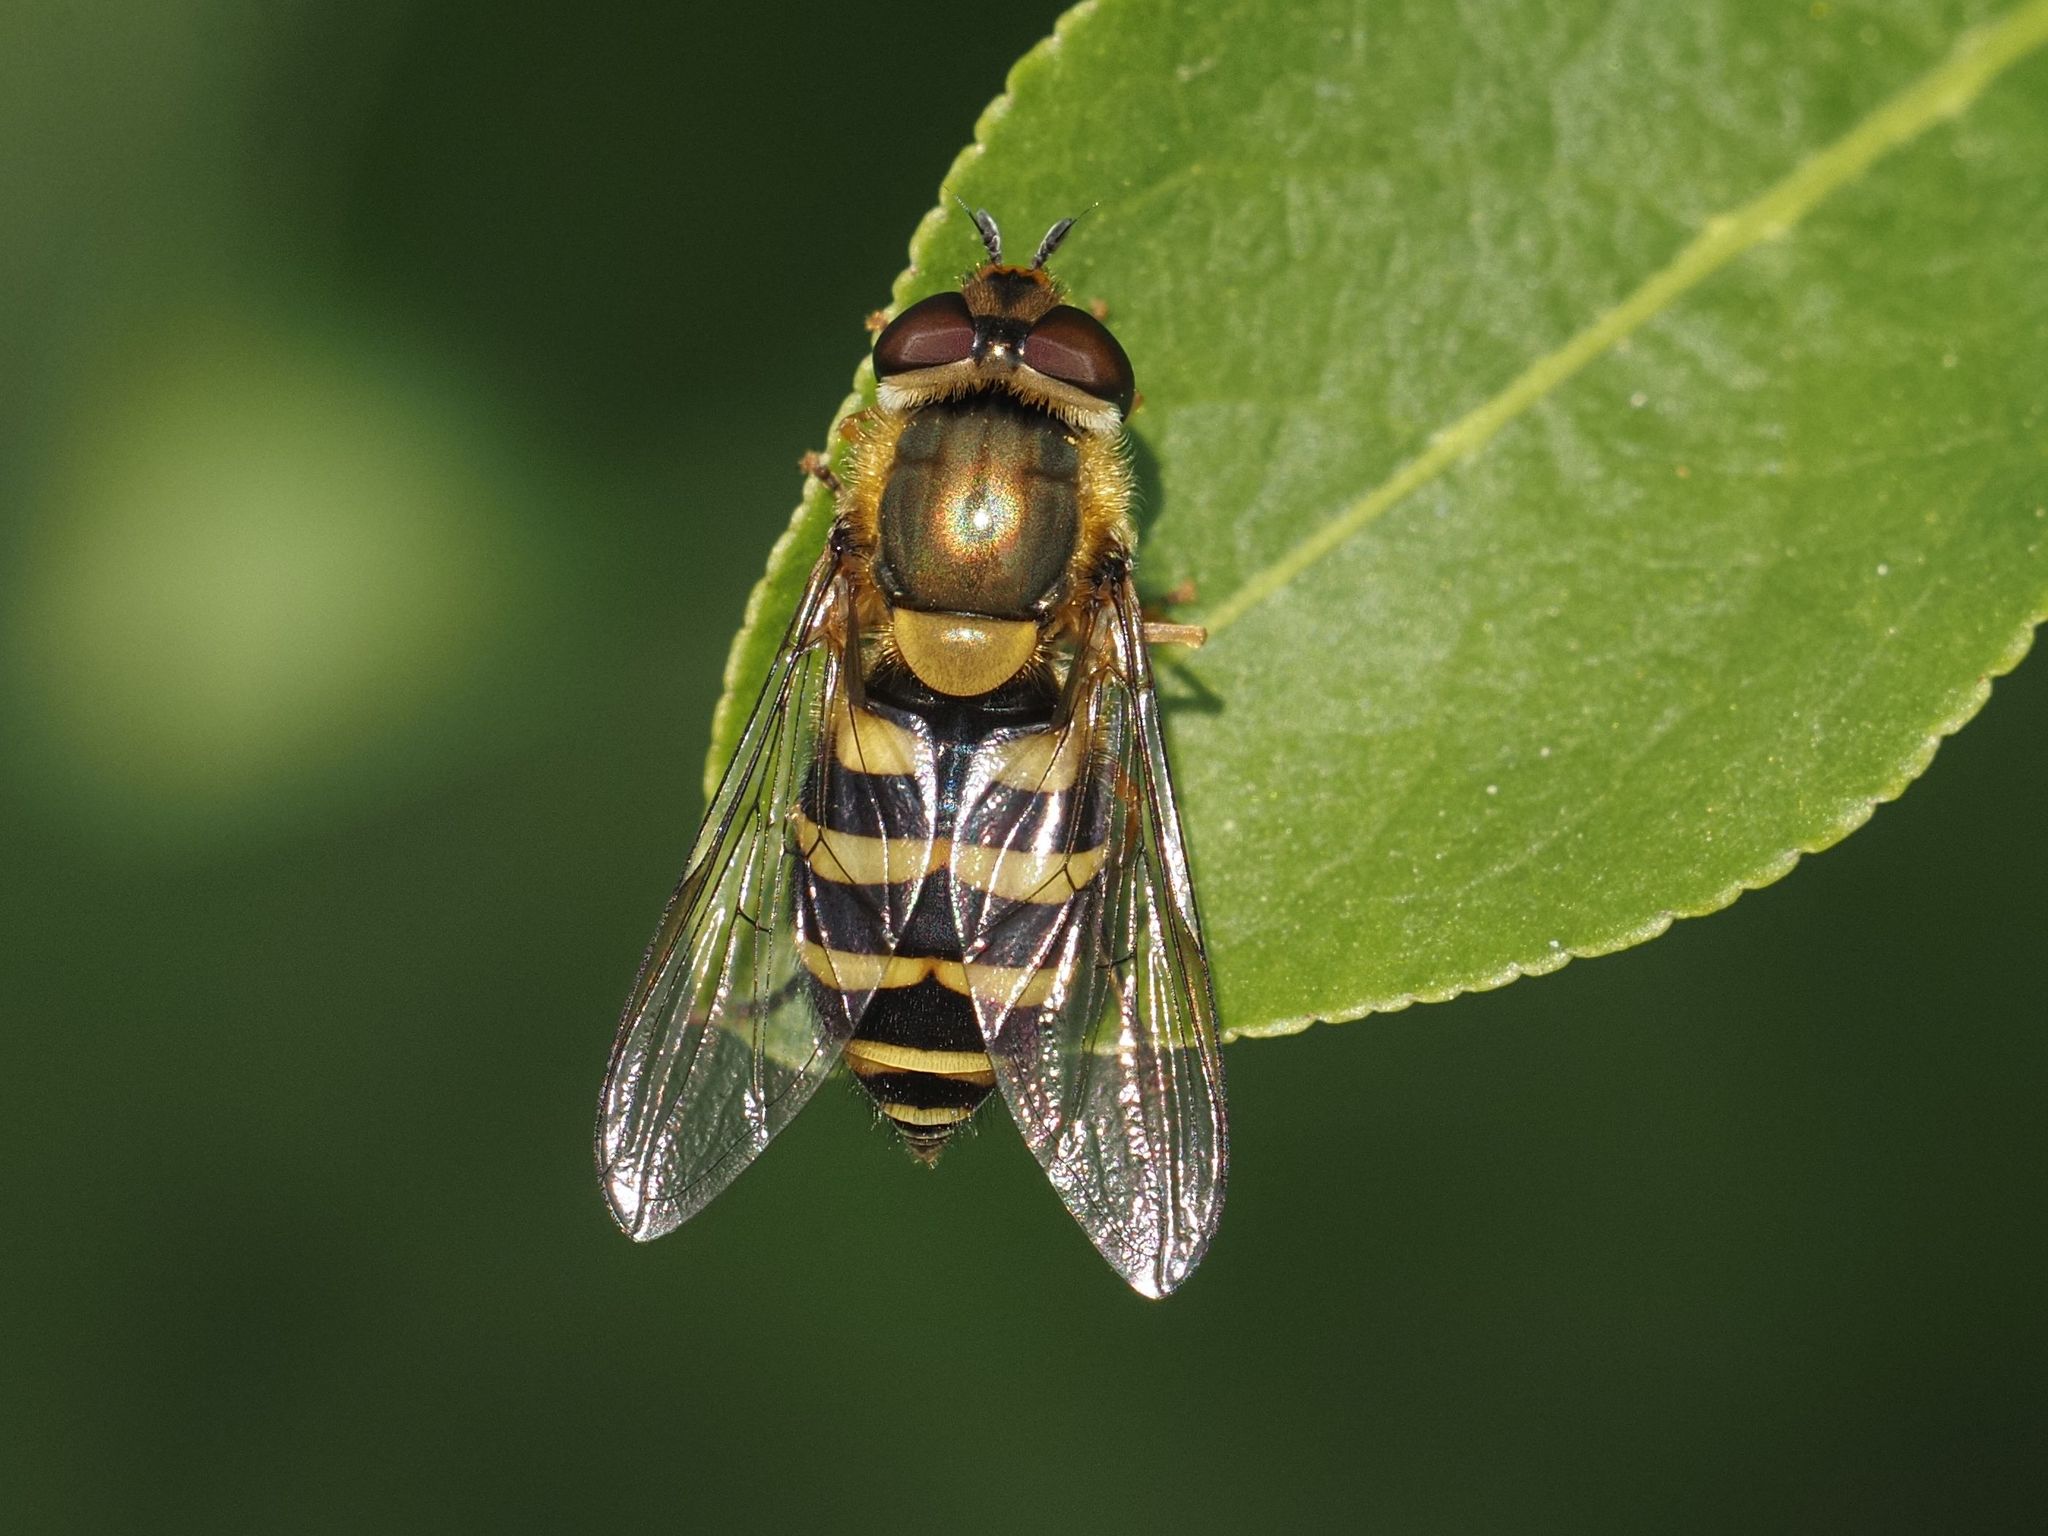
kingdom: Animalia
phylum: Arthropoda
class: Insecta
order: Diptera
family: Syrphidae
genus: Syrphus
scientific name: Syrphus
